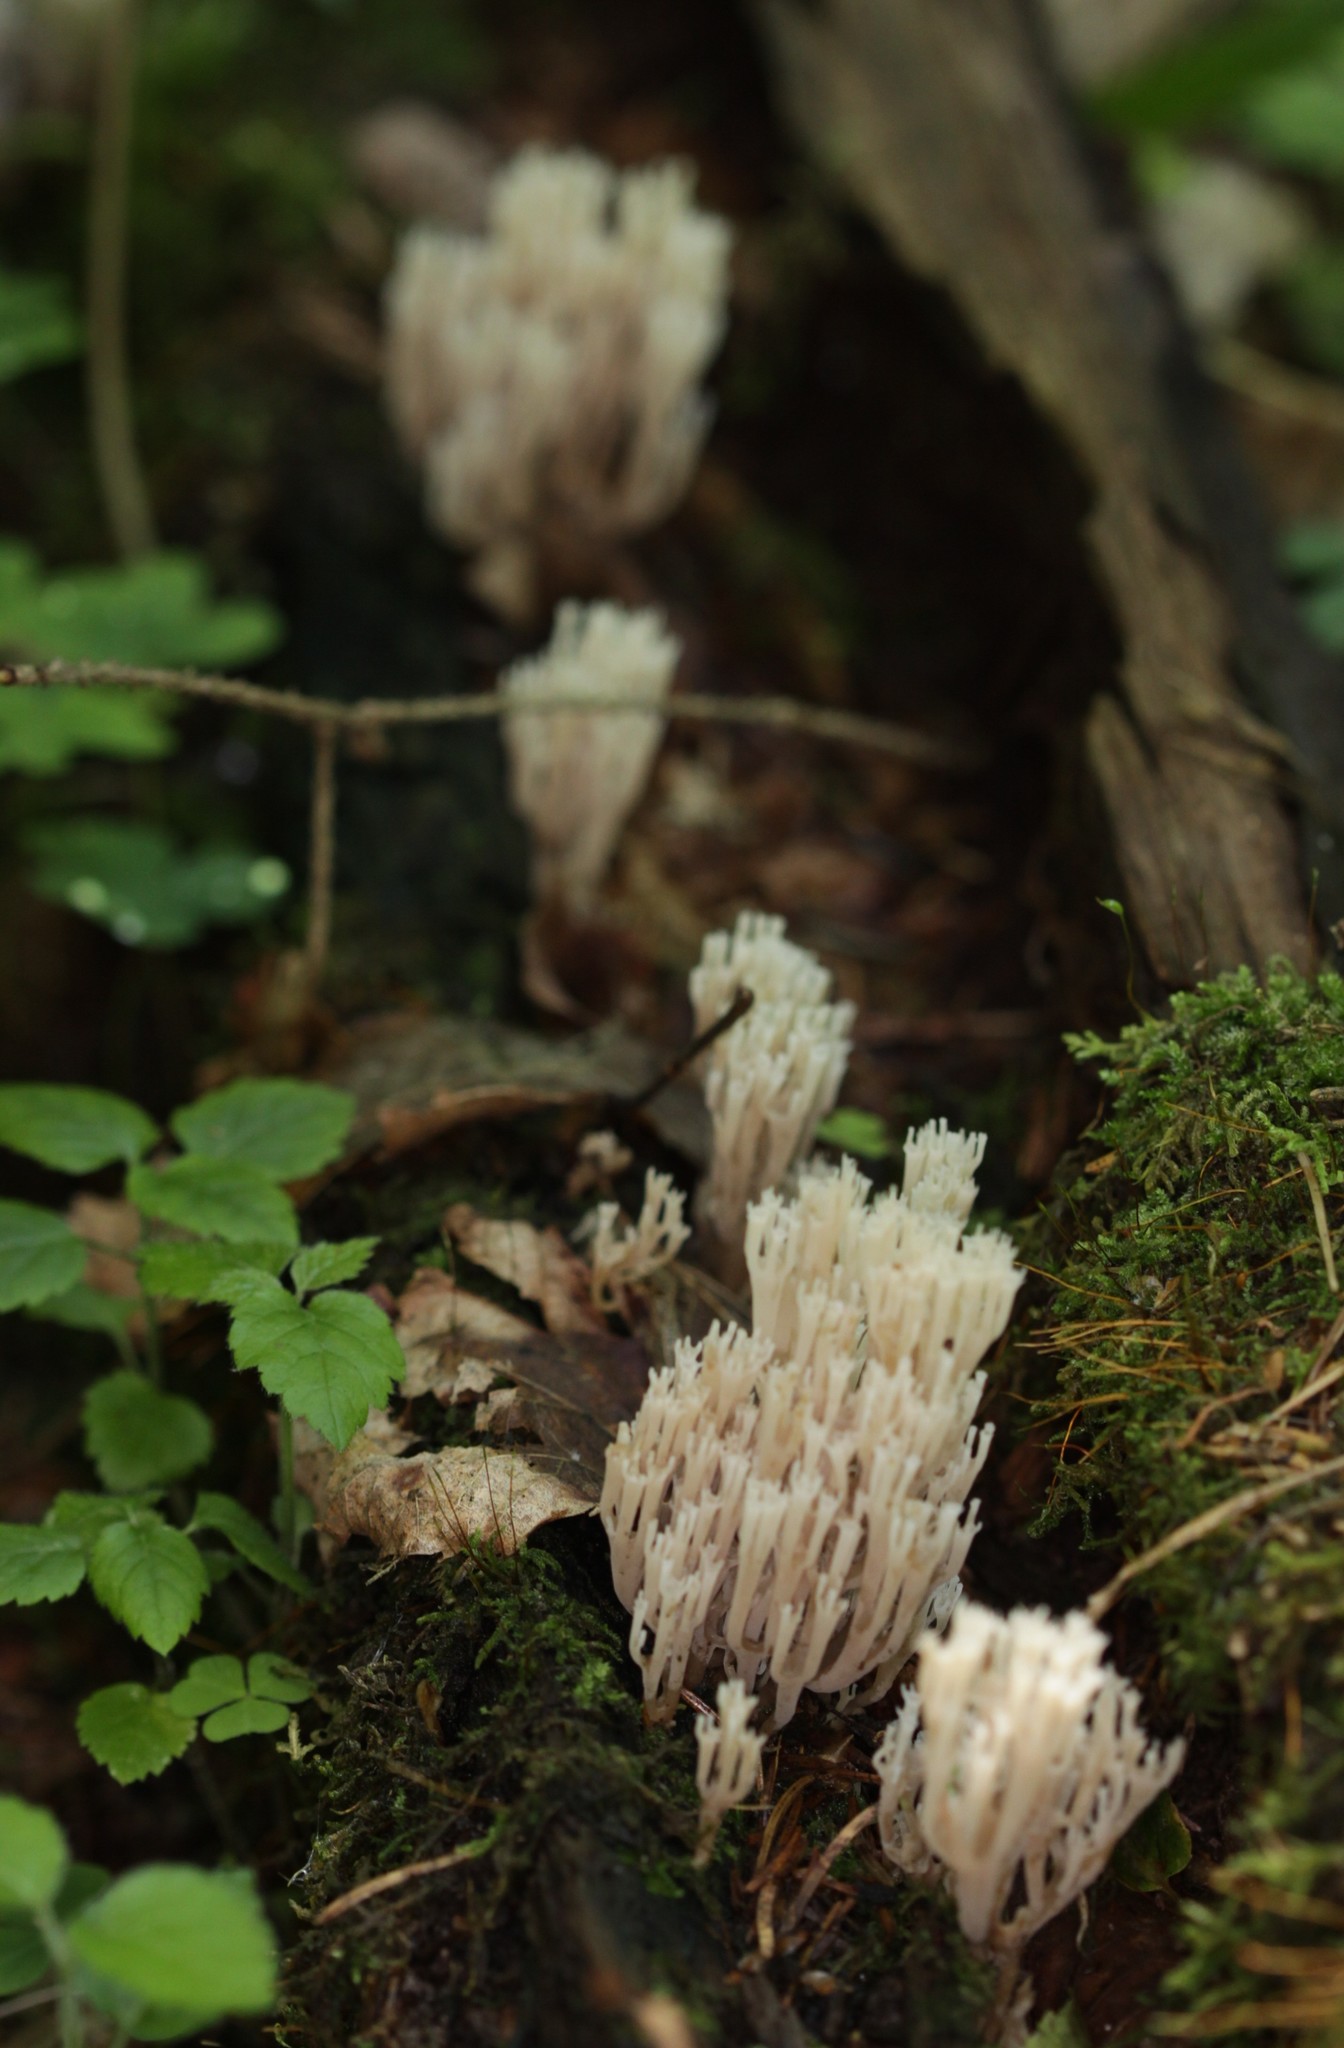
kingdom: Fungi
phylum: Basidiomycota
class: Agaricomycetes
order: Russulales
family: Auriscalpiaceae
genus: Artomyces
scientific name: Artomyces pyxidatus
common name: Crown-tipped coral fungus
